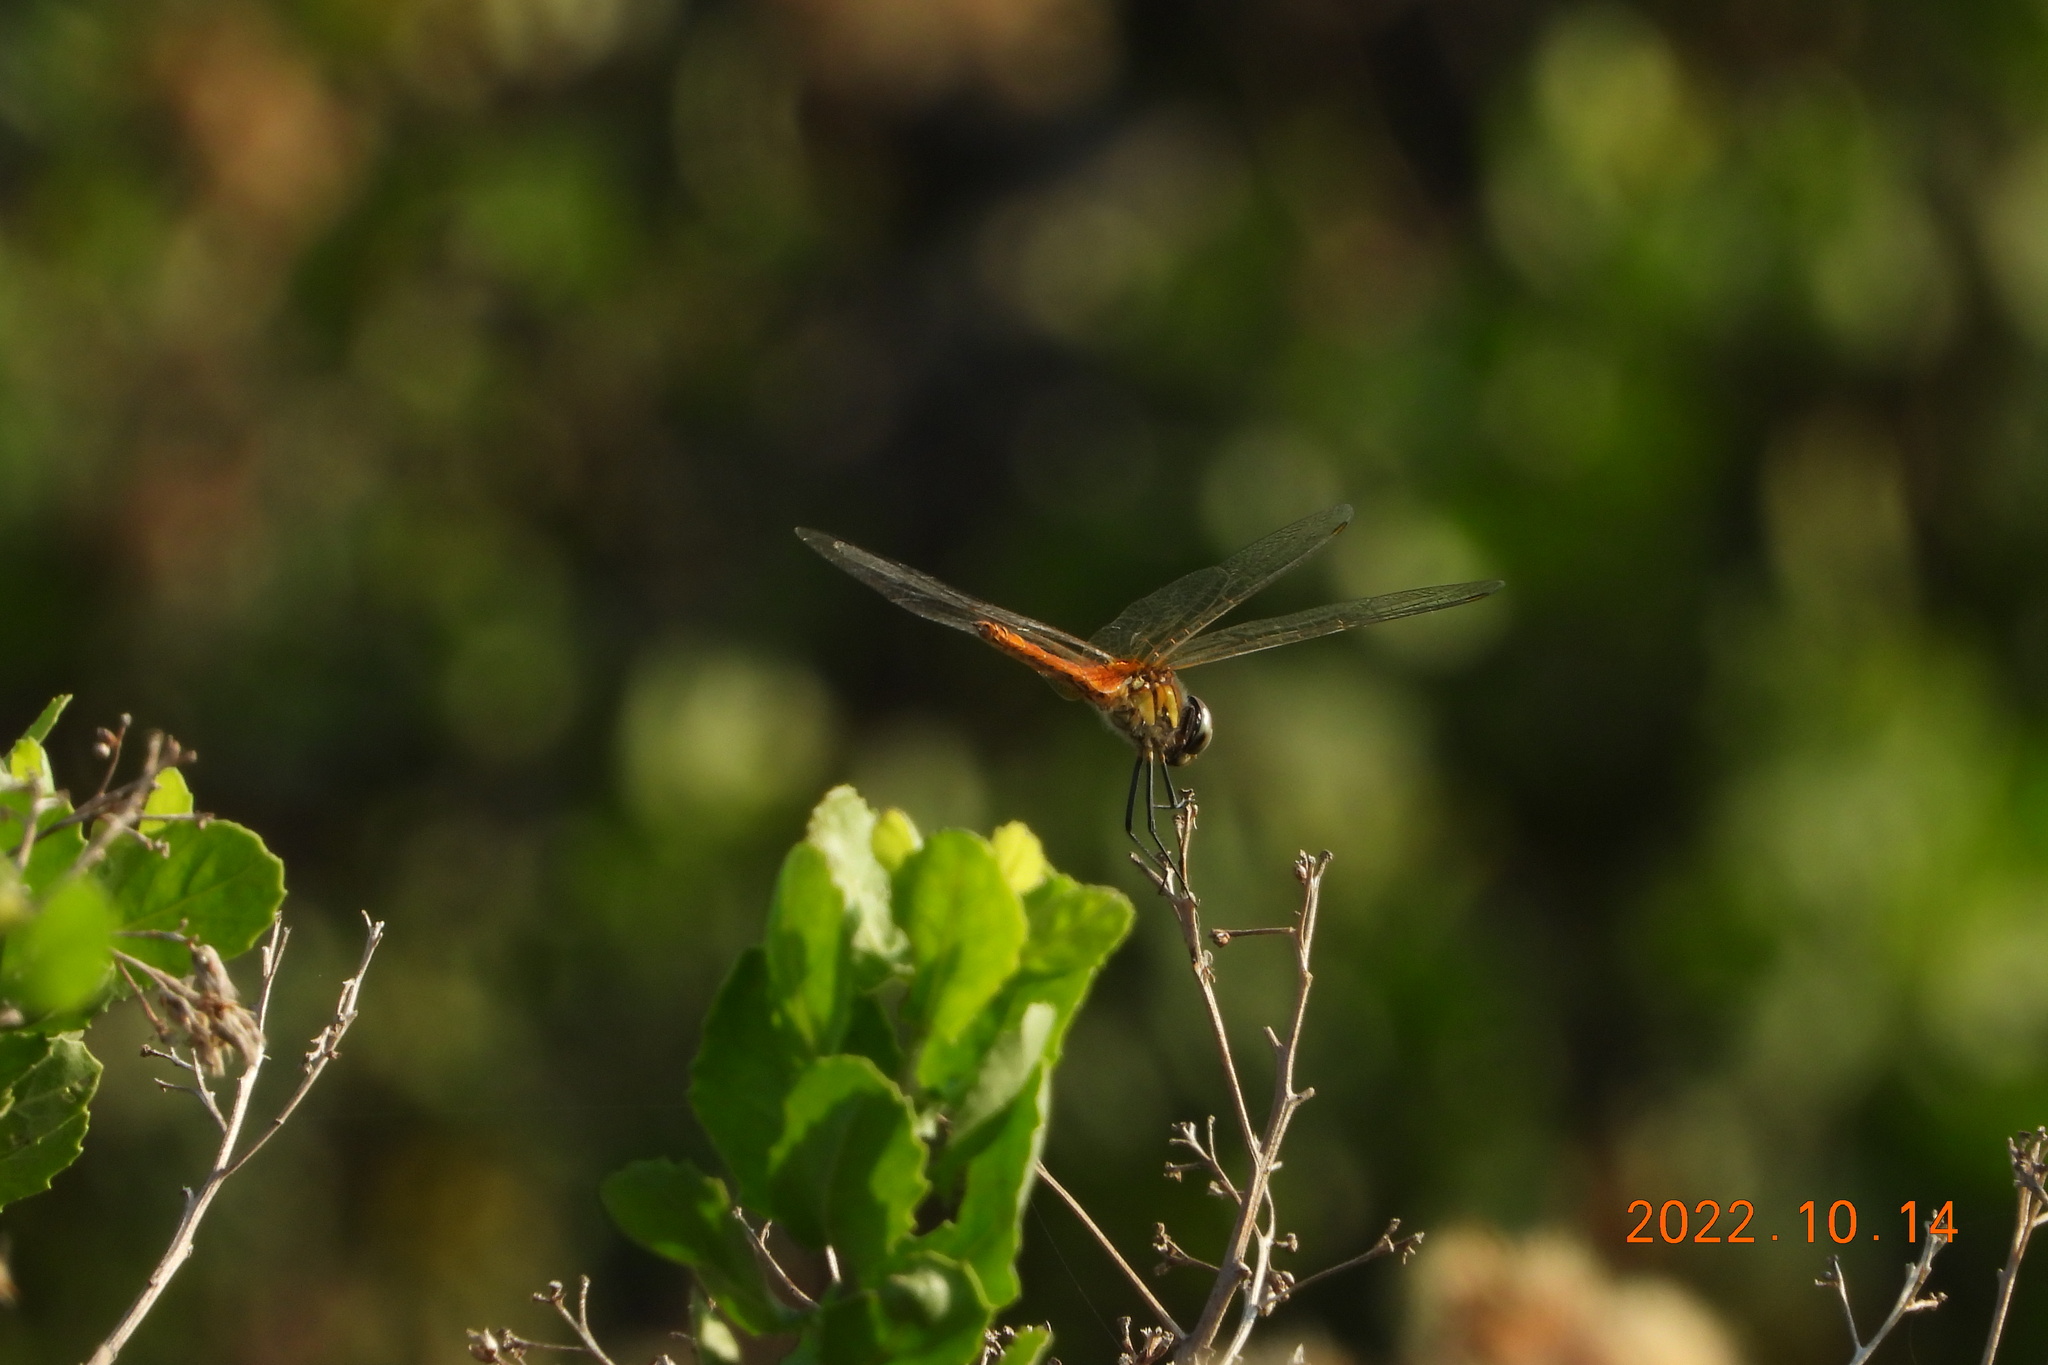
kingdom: Animalia
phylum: Arthropoda
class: Insecta
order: Odonata
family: Libellulidae
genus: Macrodiplax
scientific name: Macrodiplax cora
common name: Coastal glider
